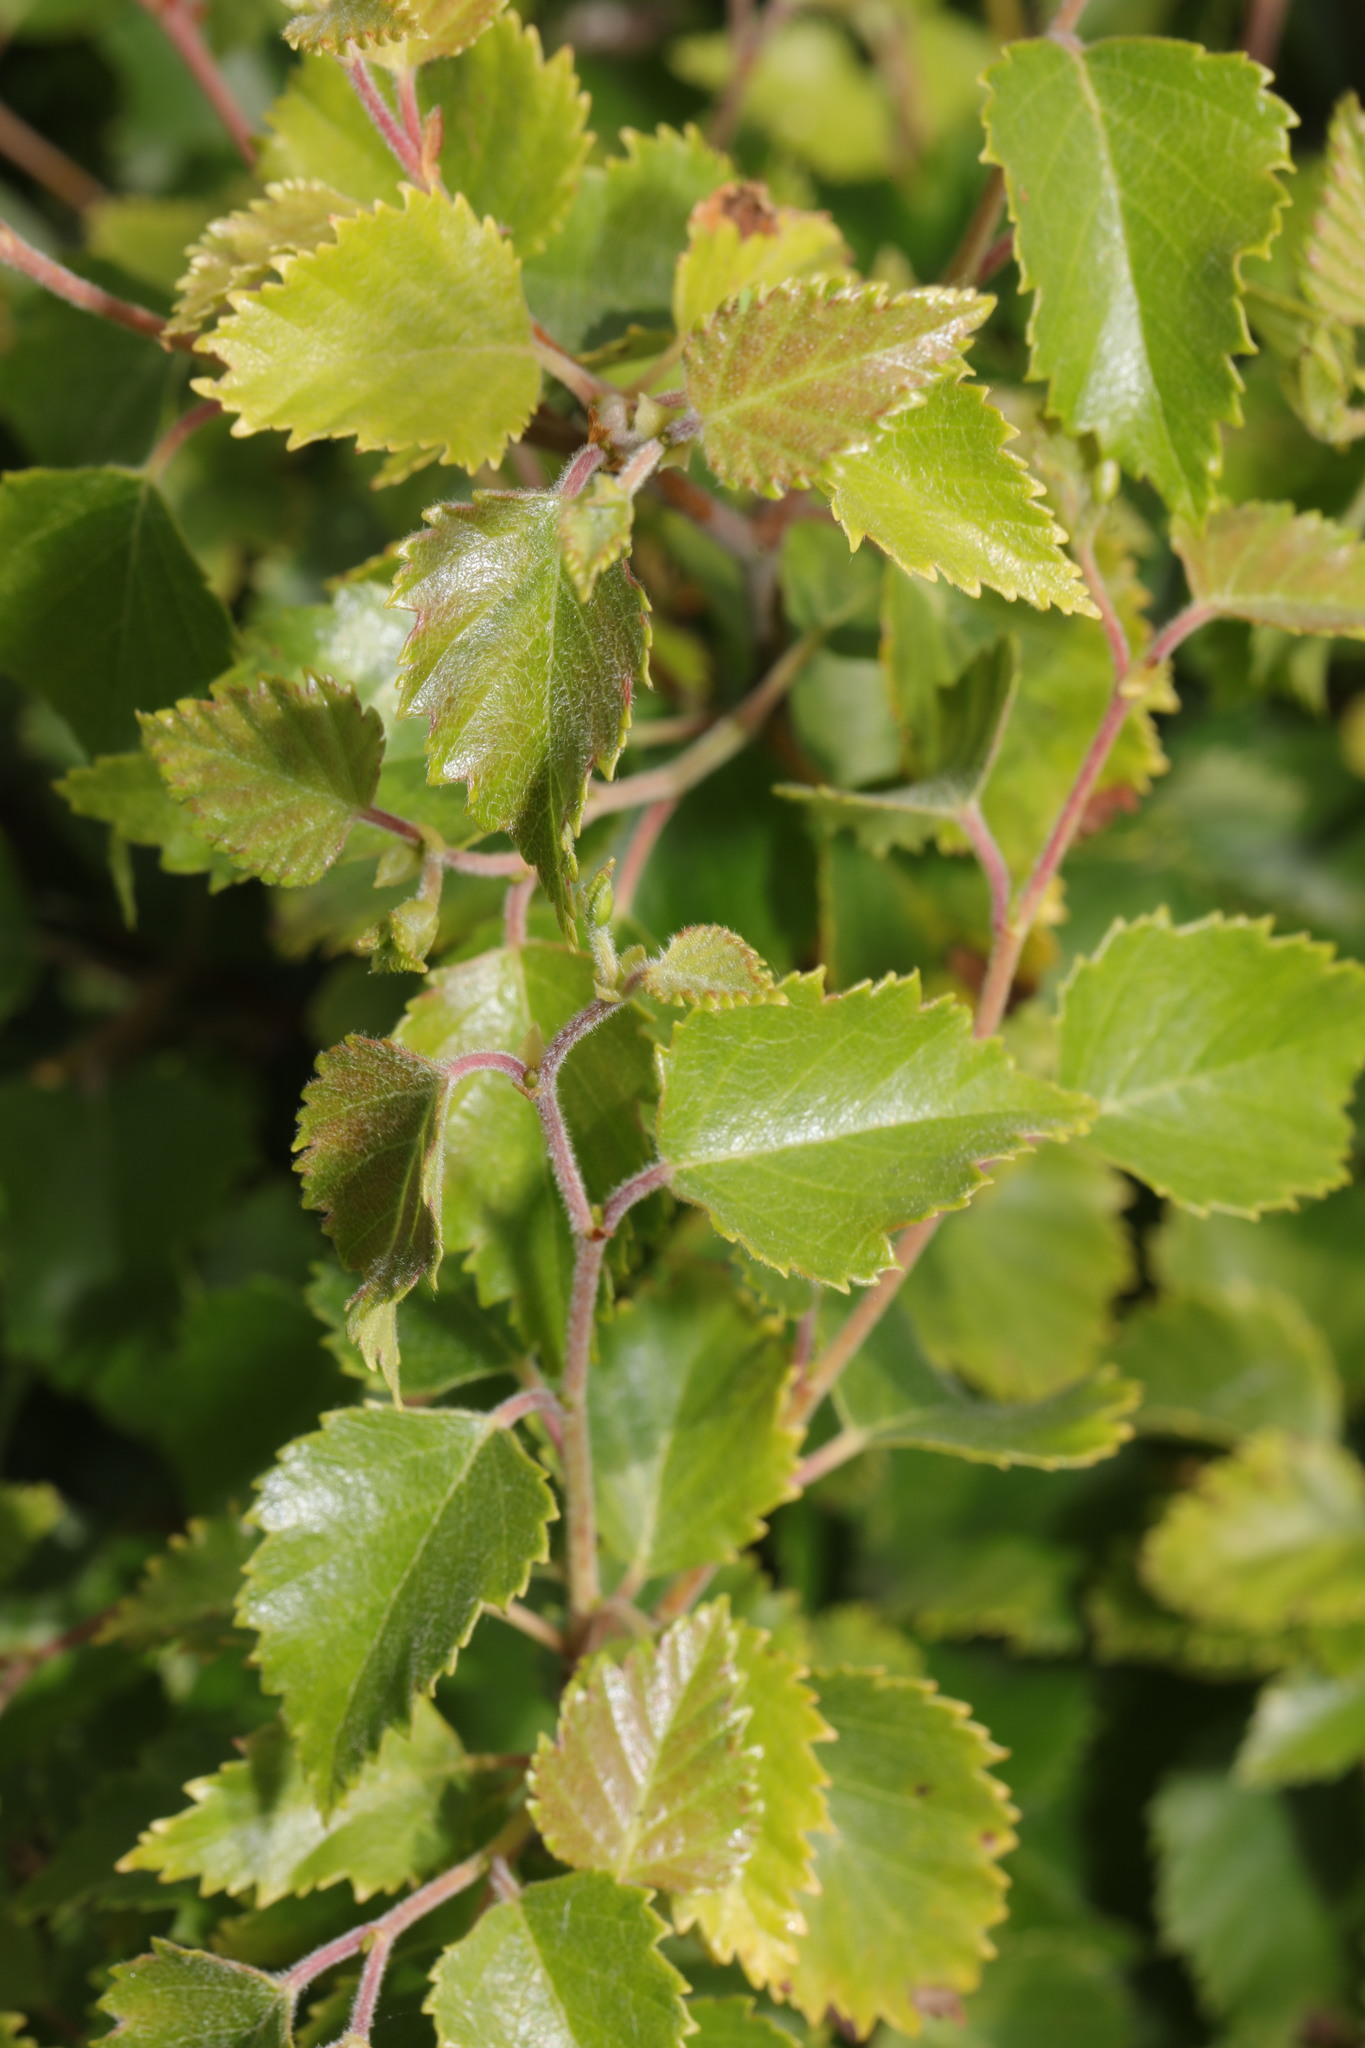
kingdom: Plantae
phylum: Tracheophyta
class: Magnoliopsida
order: Fagales
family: Betulaceae
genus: Betula
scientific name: Betula pubescens
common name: Downy birch
